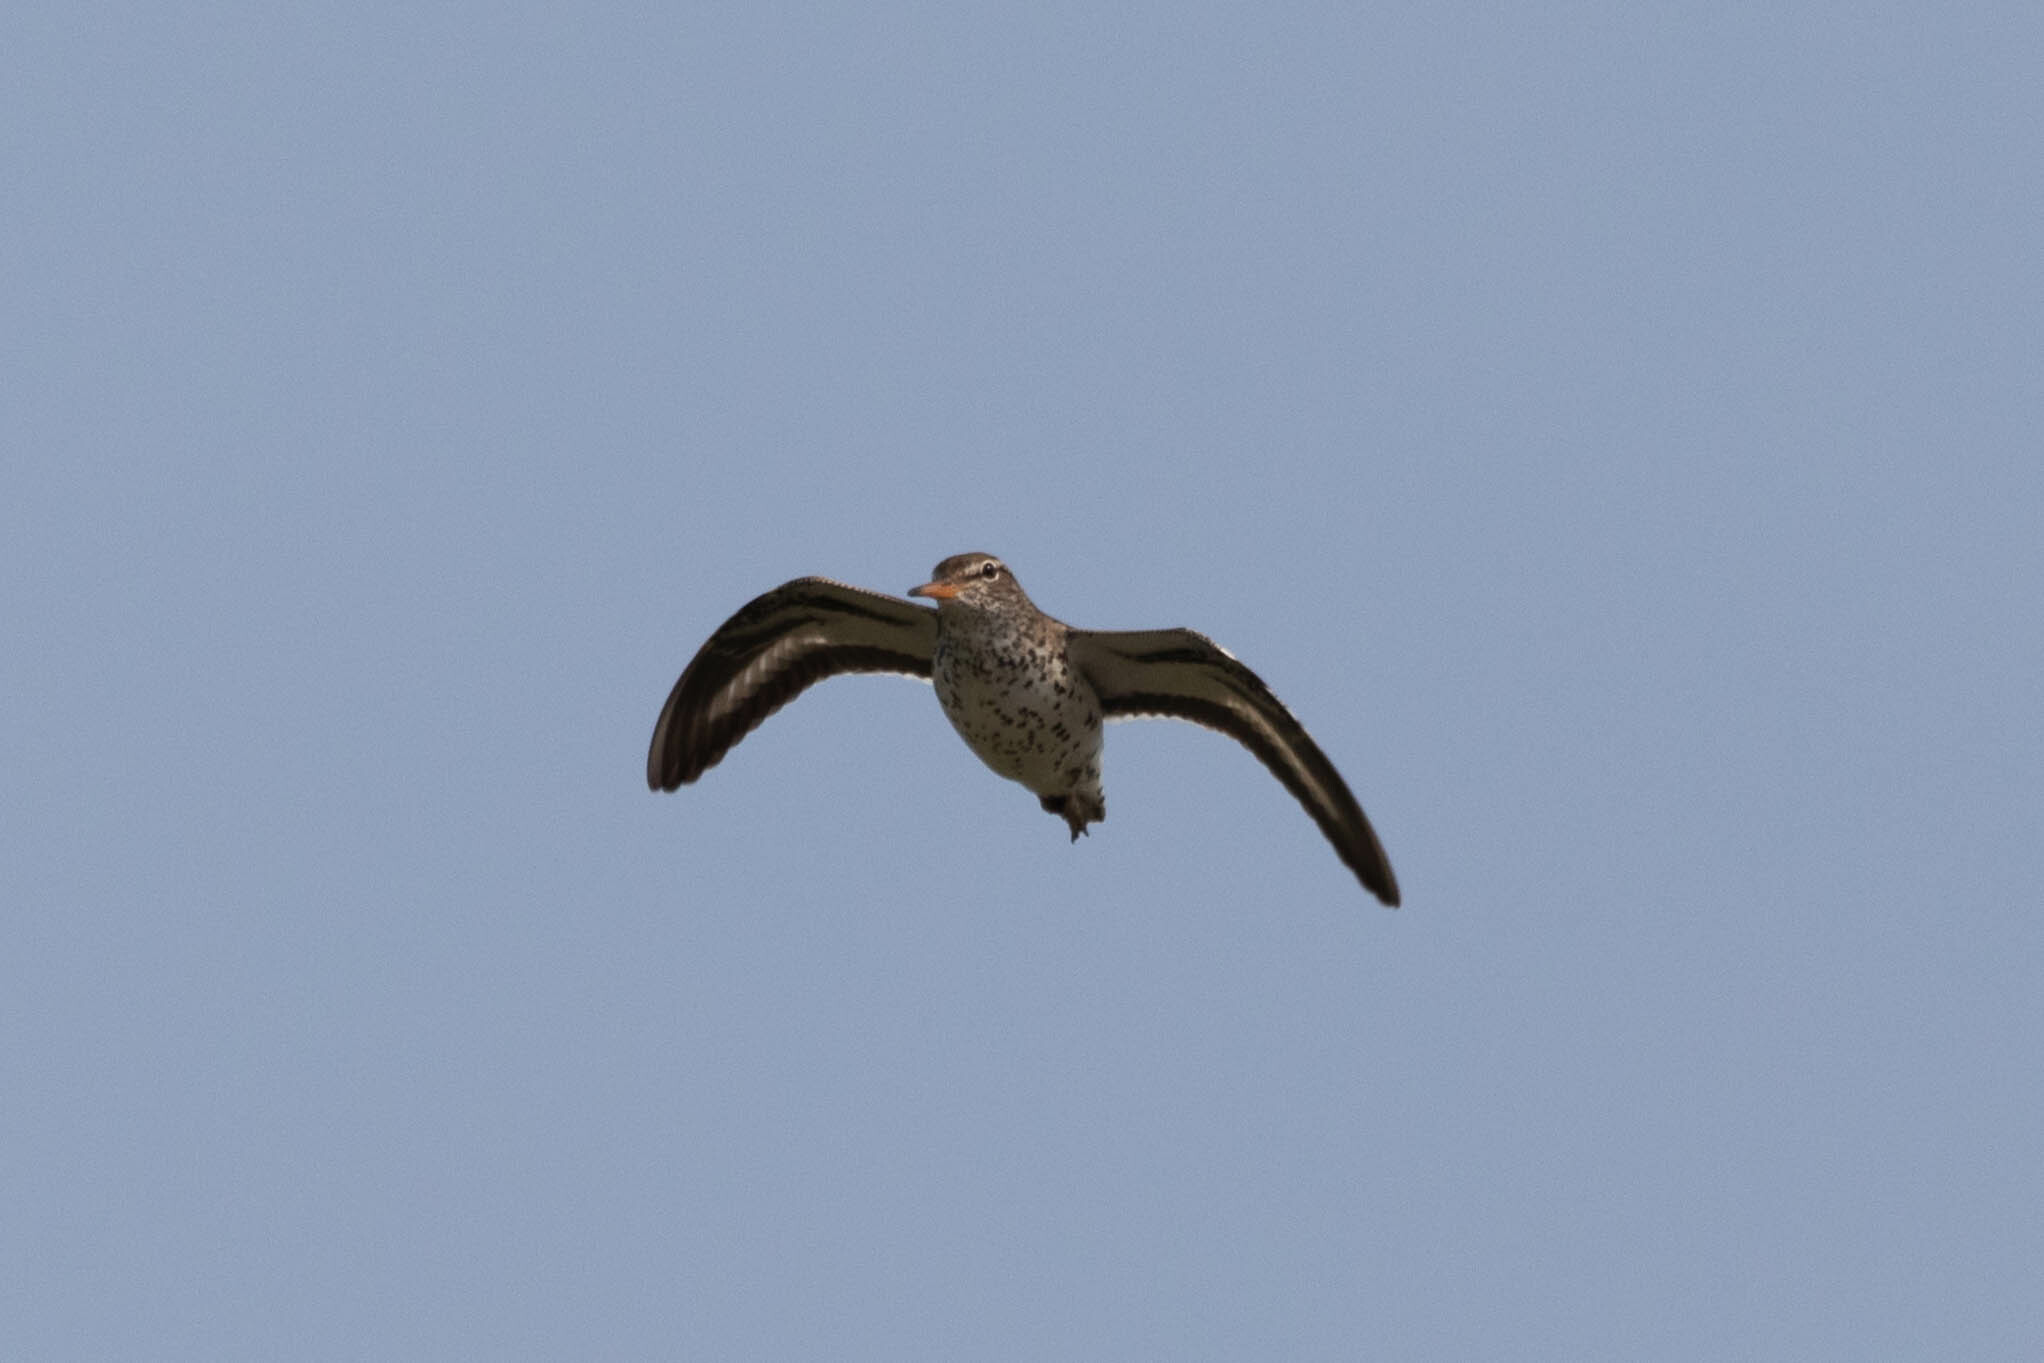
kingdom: Animalia
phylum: Chordata
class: Aves
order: Charadriiformes
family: Scolopacidae
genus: Actitis
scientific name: Actitis macularius
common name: Spotted sandpiper
